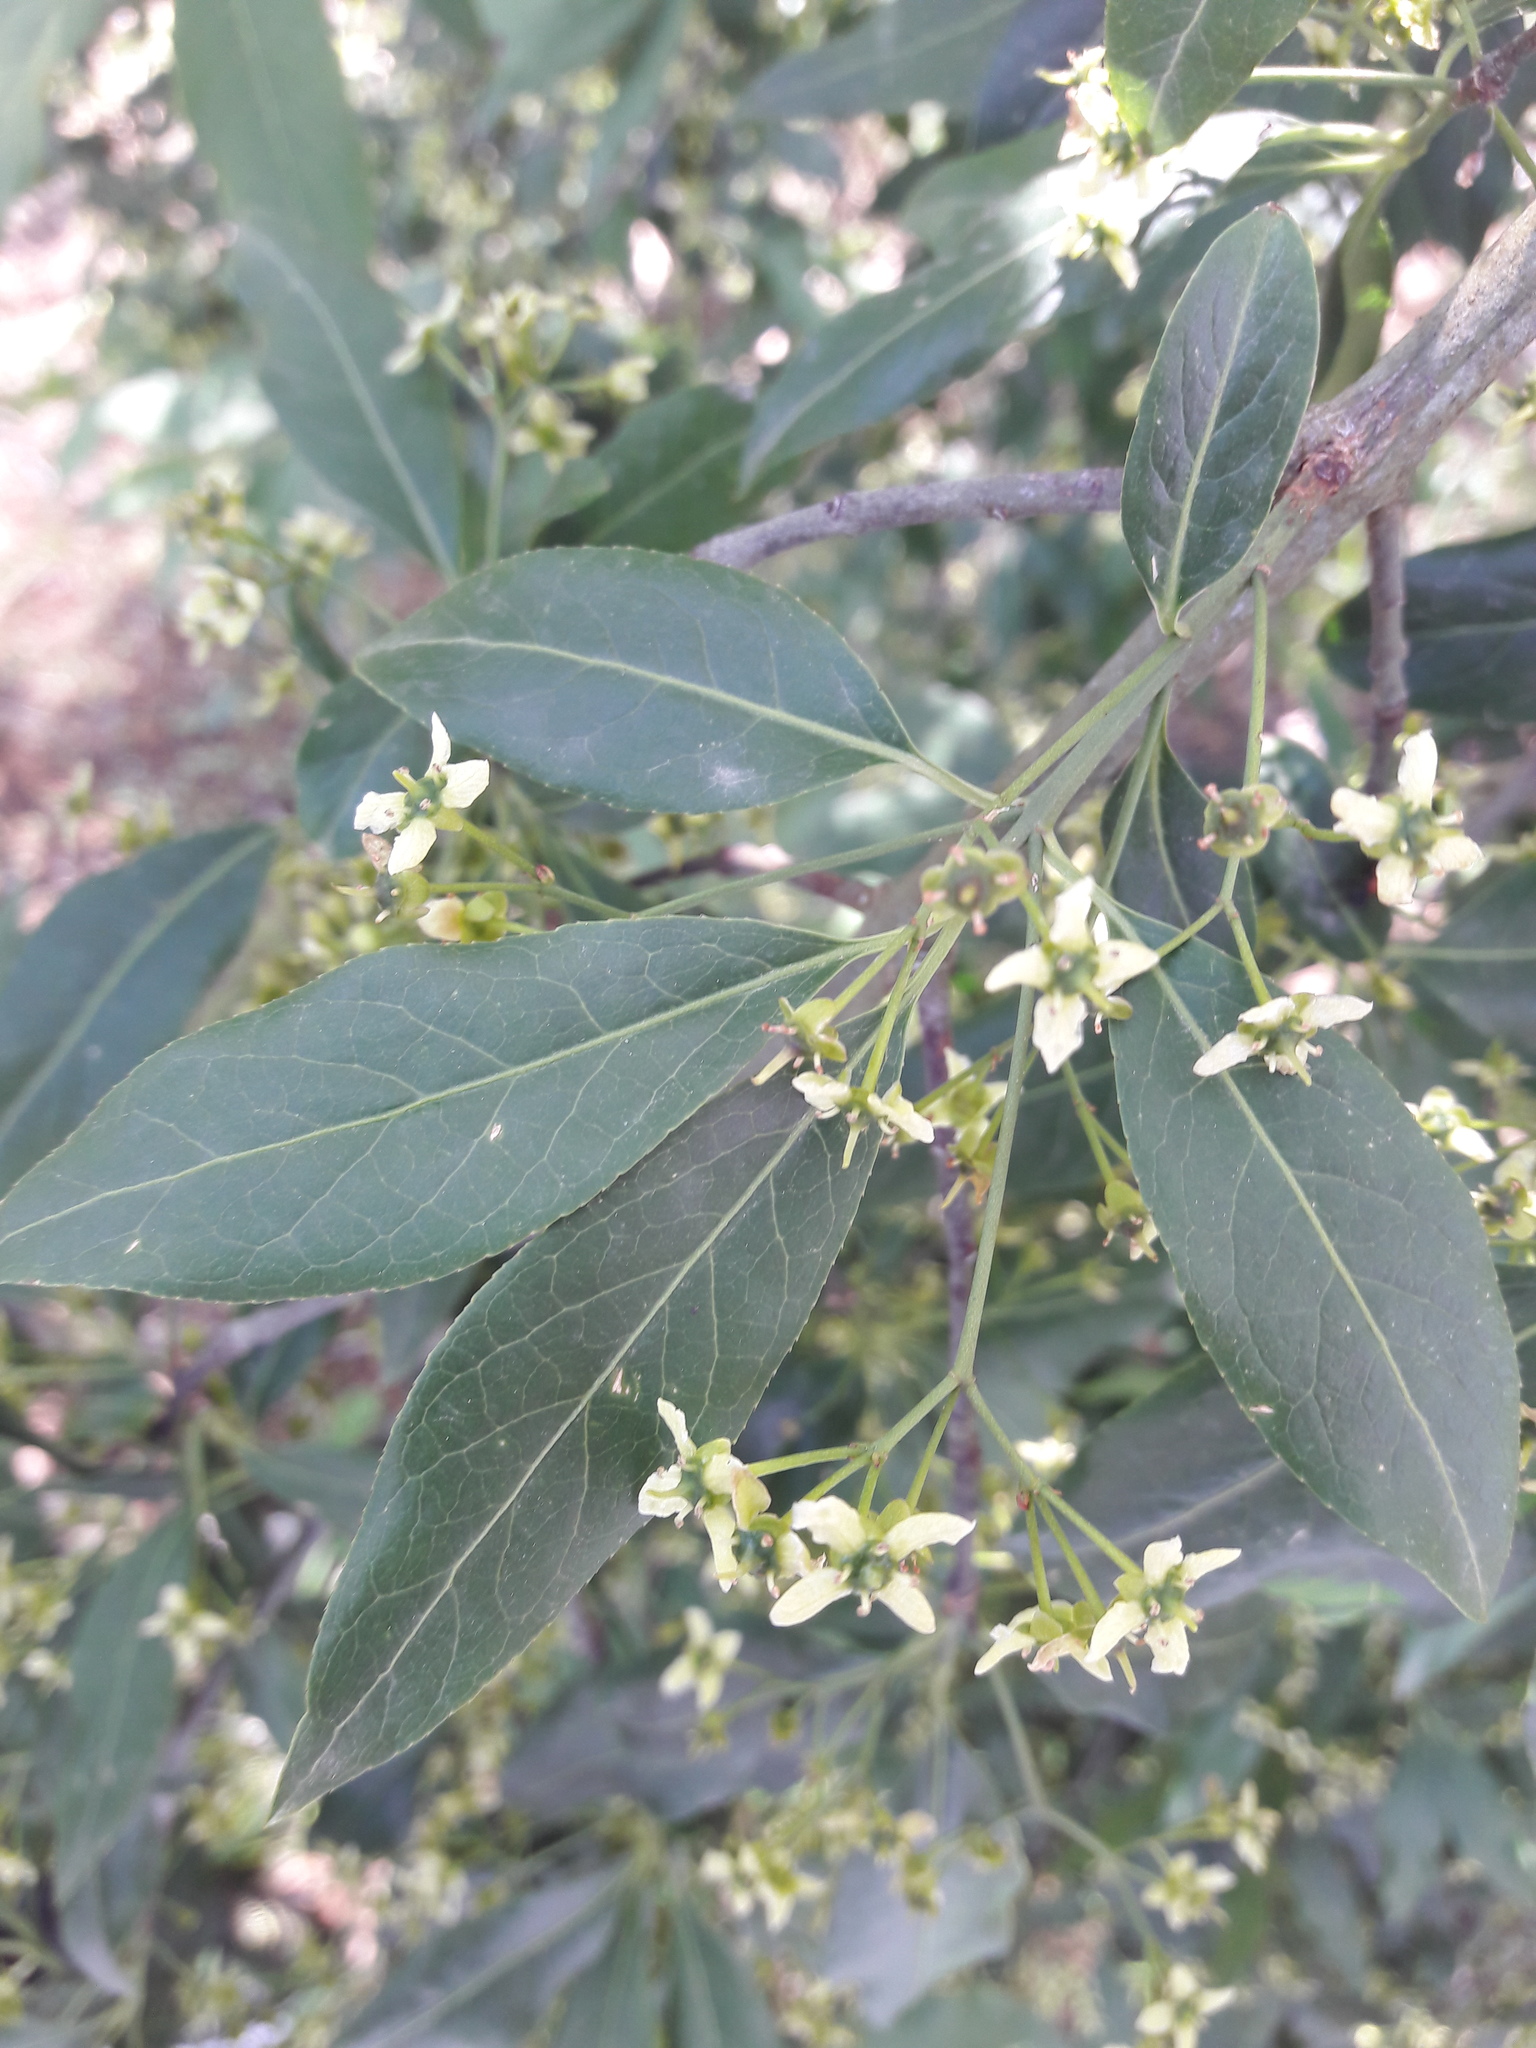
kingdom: Plantae
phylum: Tracheophyta
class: Magnoliopsida
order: Celastrales
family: Celastraceae
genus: Euonymus
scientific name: Euonymus europaeus
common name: Spindle
